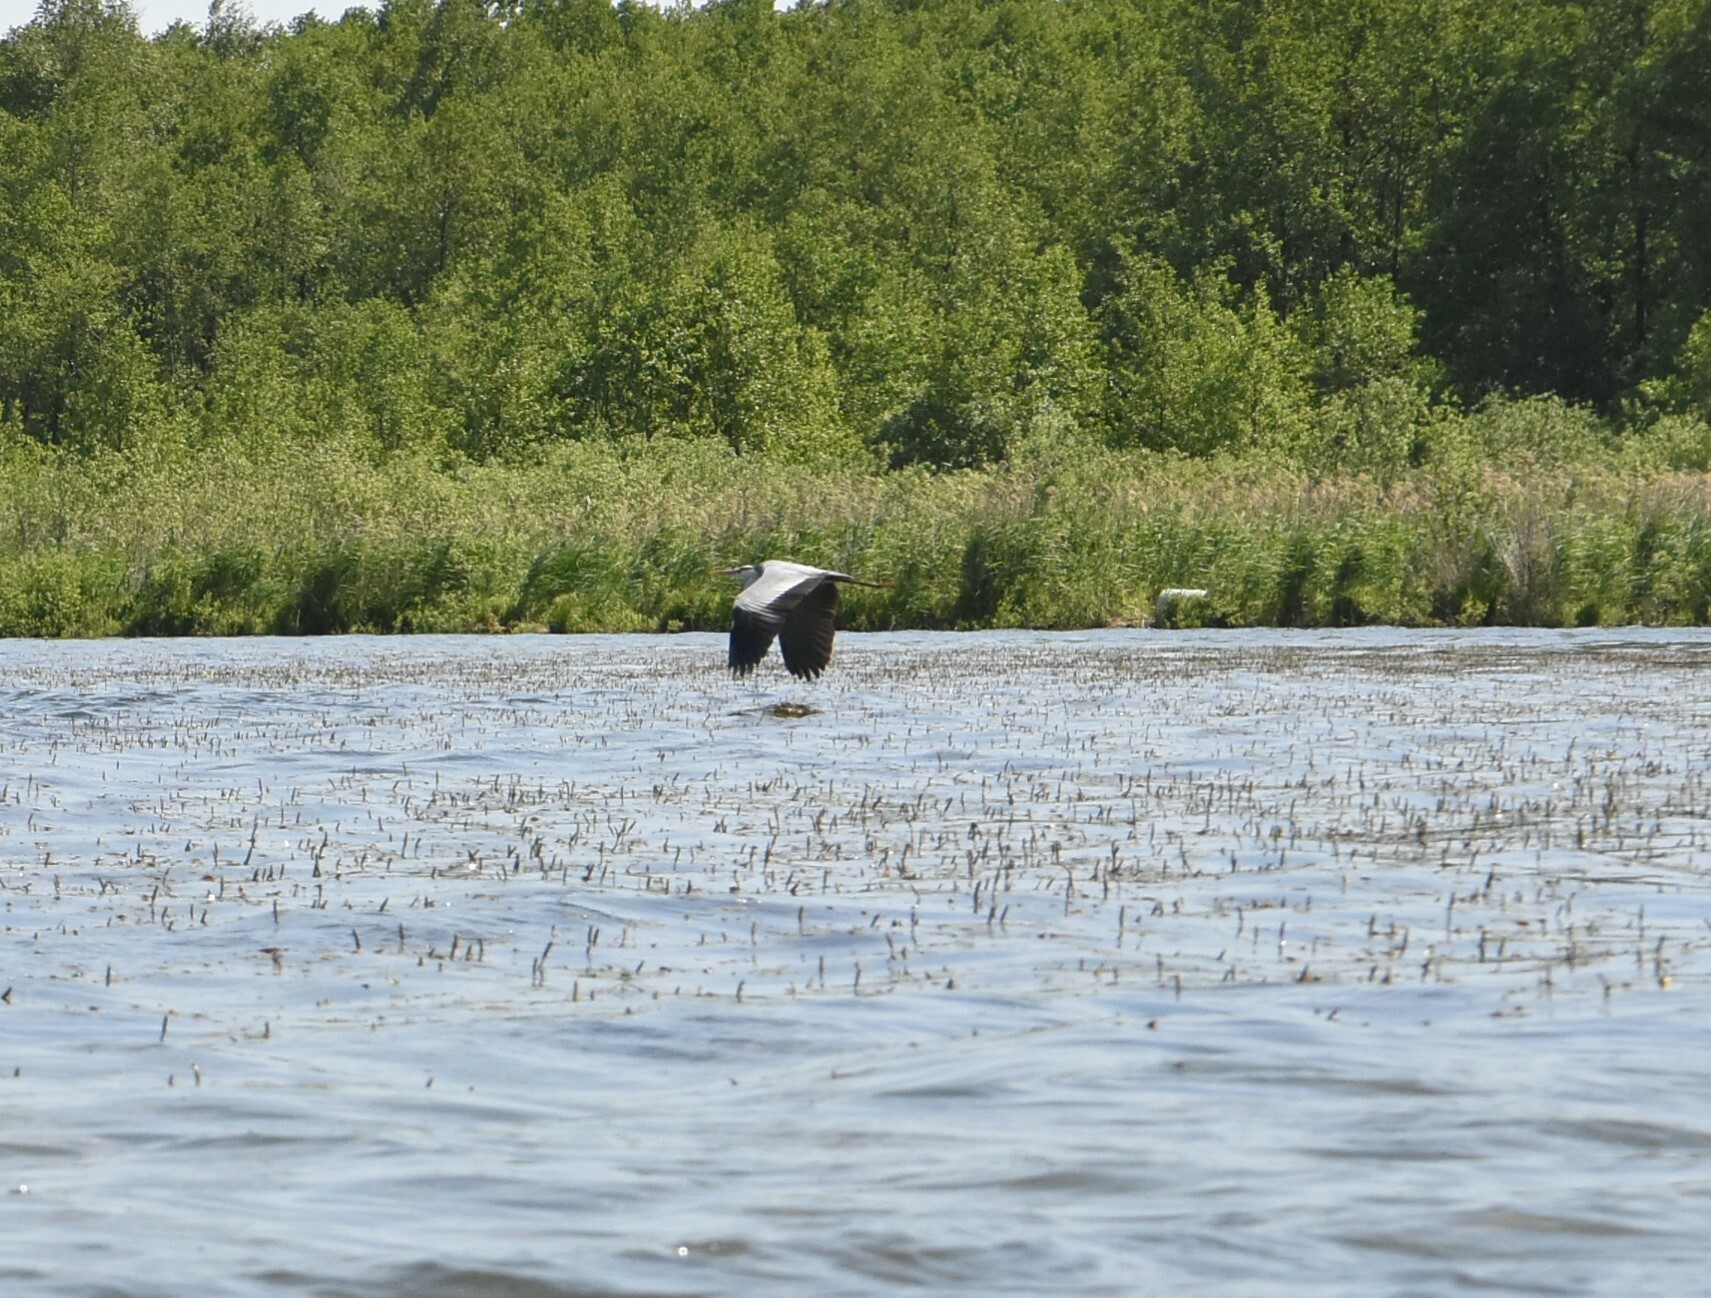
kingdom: Animalia
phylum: Chordata
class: Aves
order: Pelecaniformes
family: Ardeidae
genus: Ardea
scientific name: Ardea cinerea
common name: Grey heron
